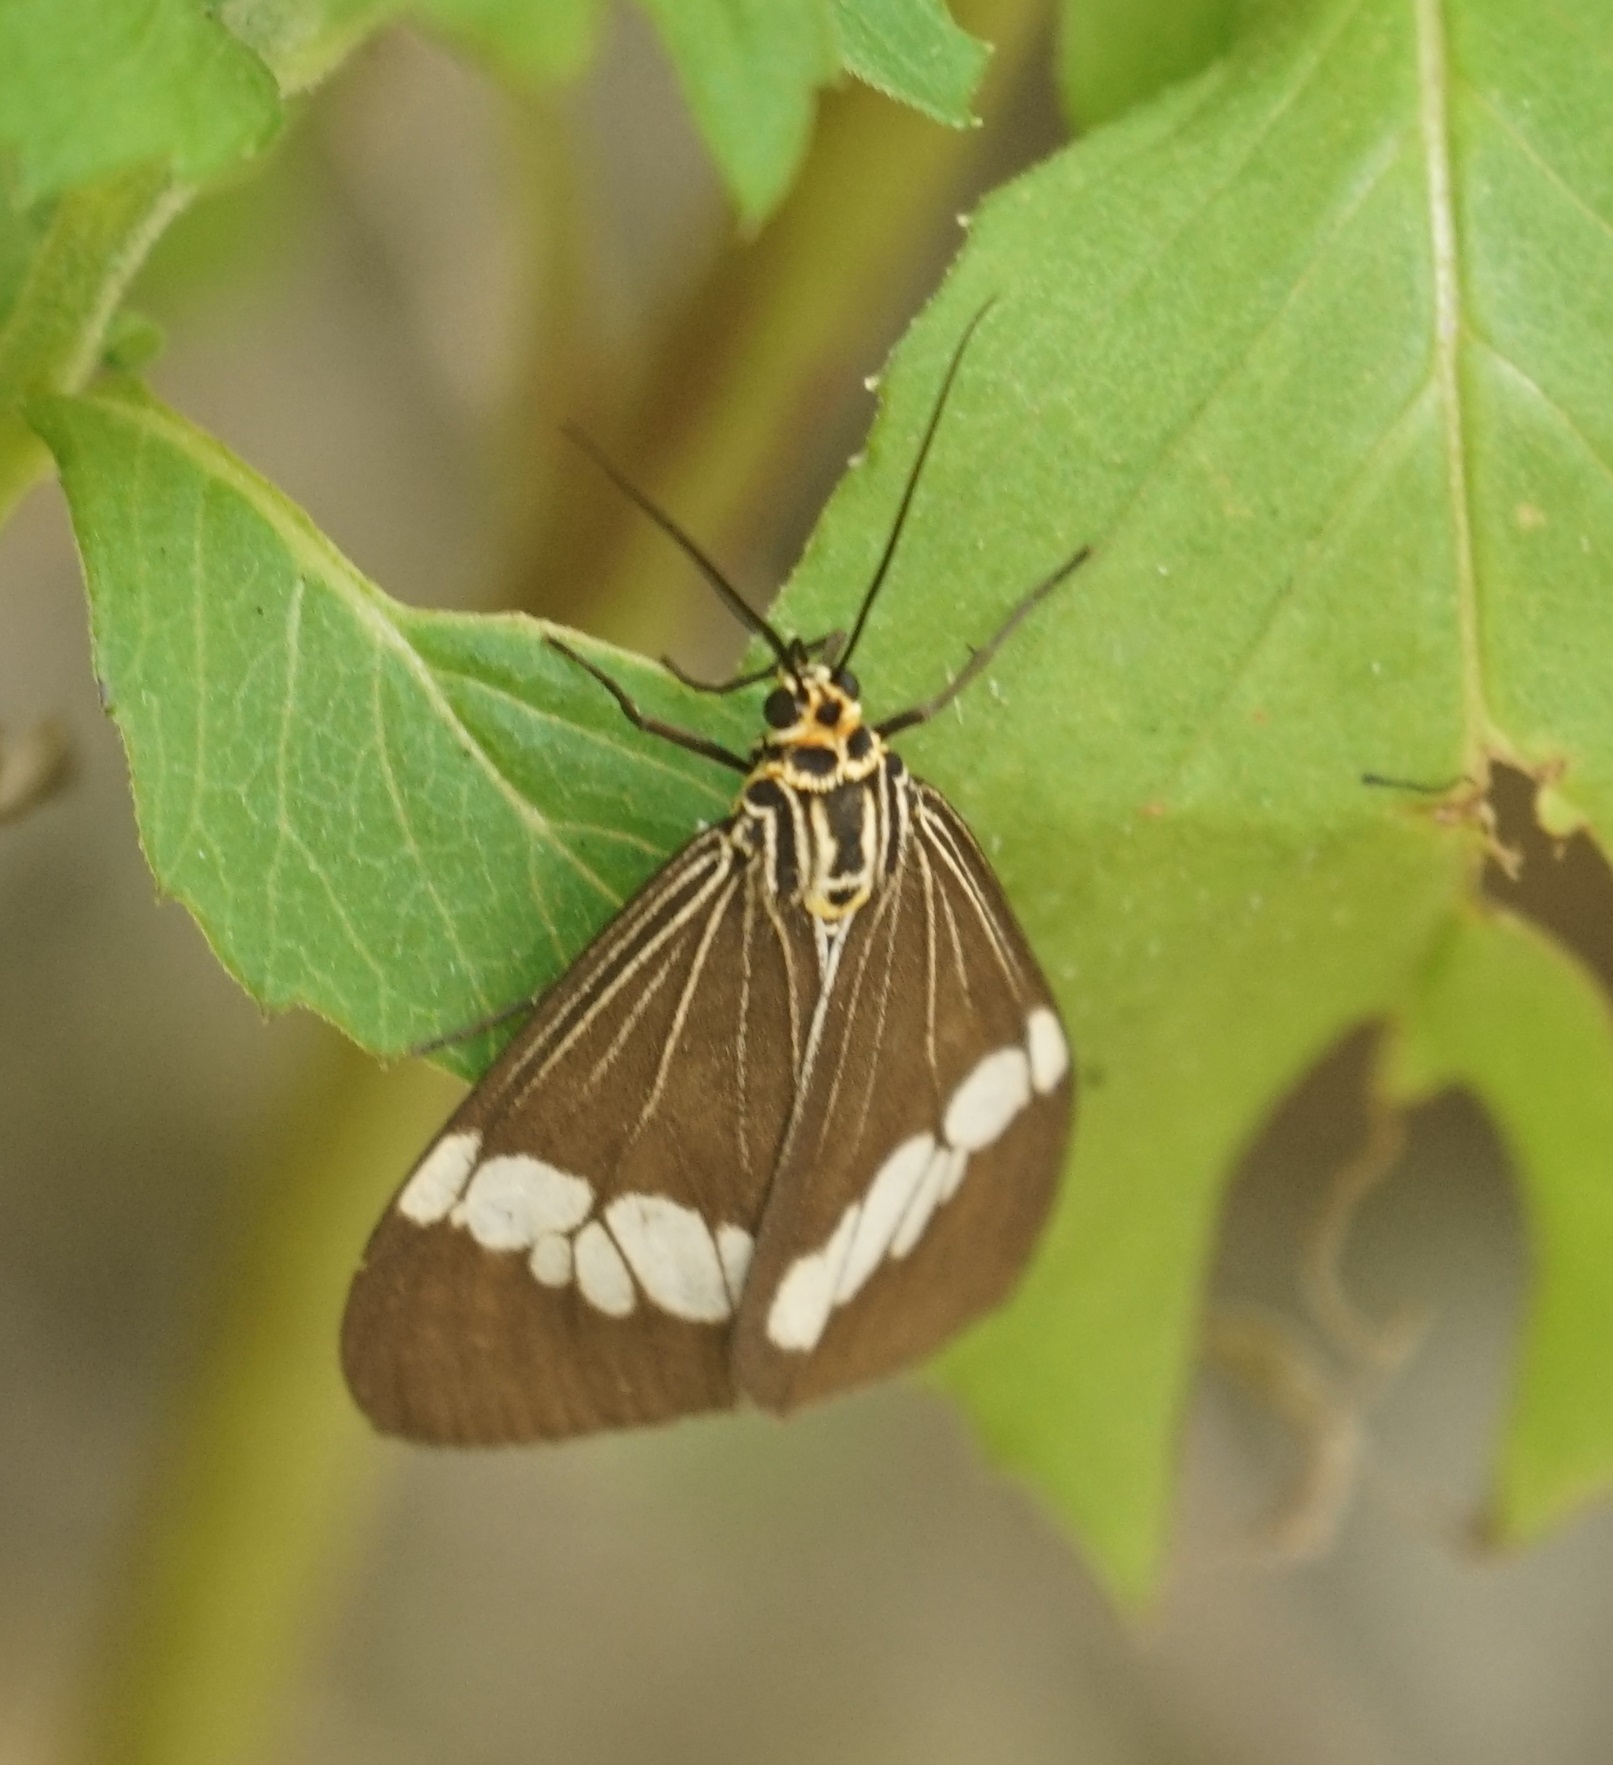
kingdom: Animalia
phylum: Arthropoda
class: Insecta
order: Lepidoptera
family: Erebidae
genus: Nyctemera
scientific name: Nyctemera baulus
